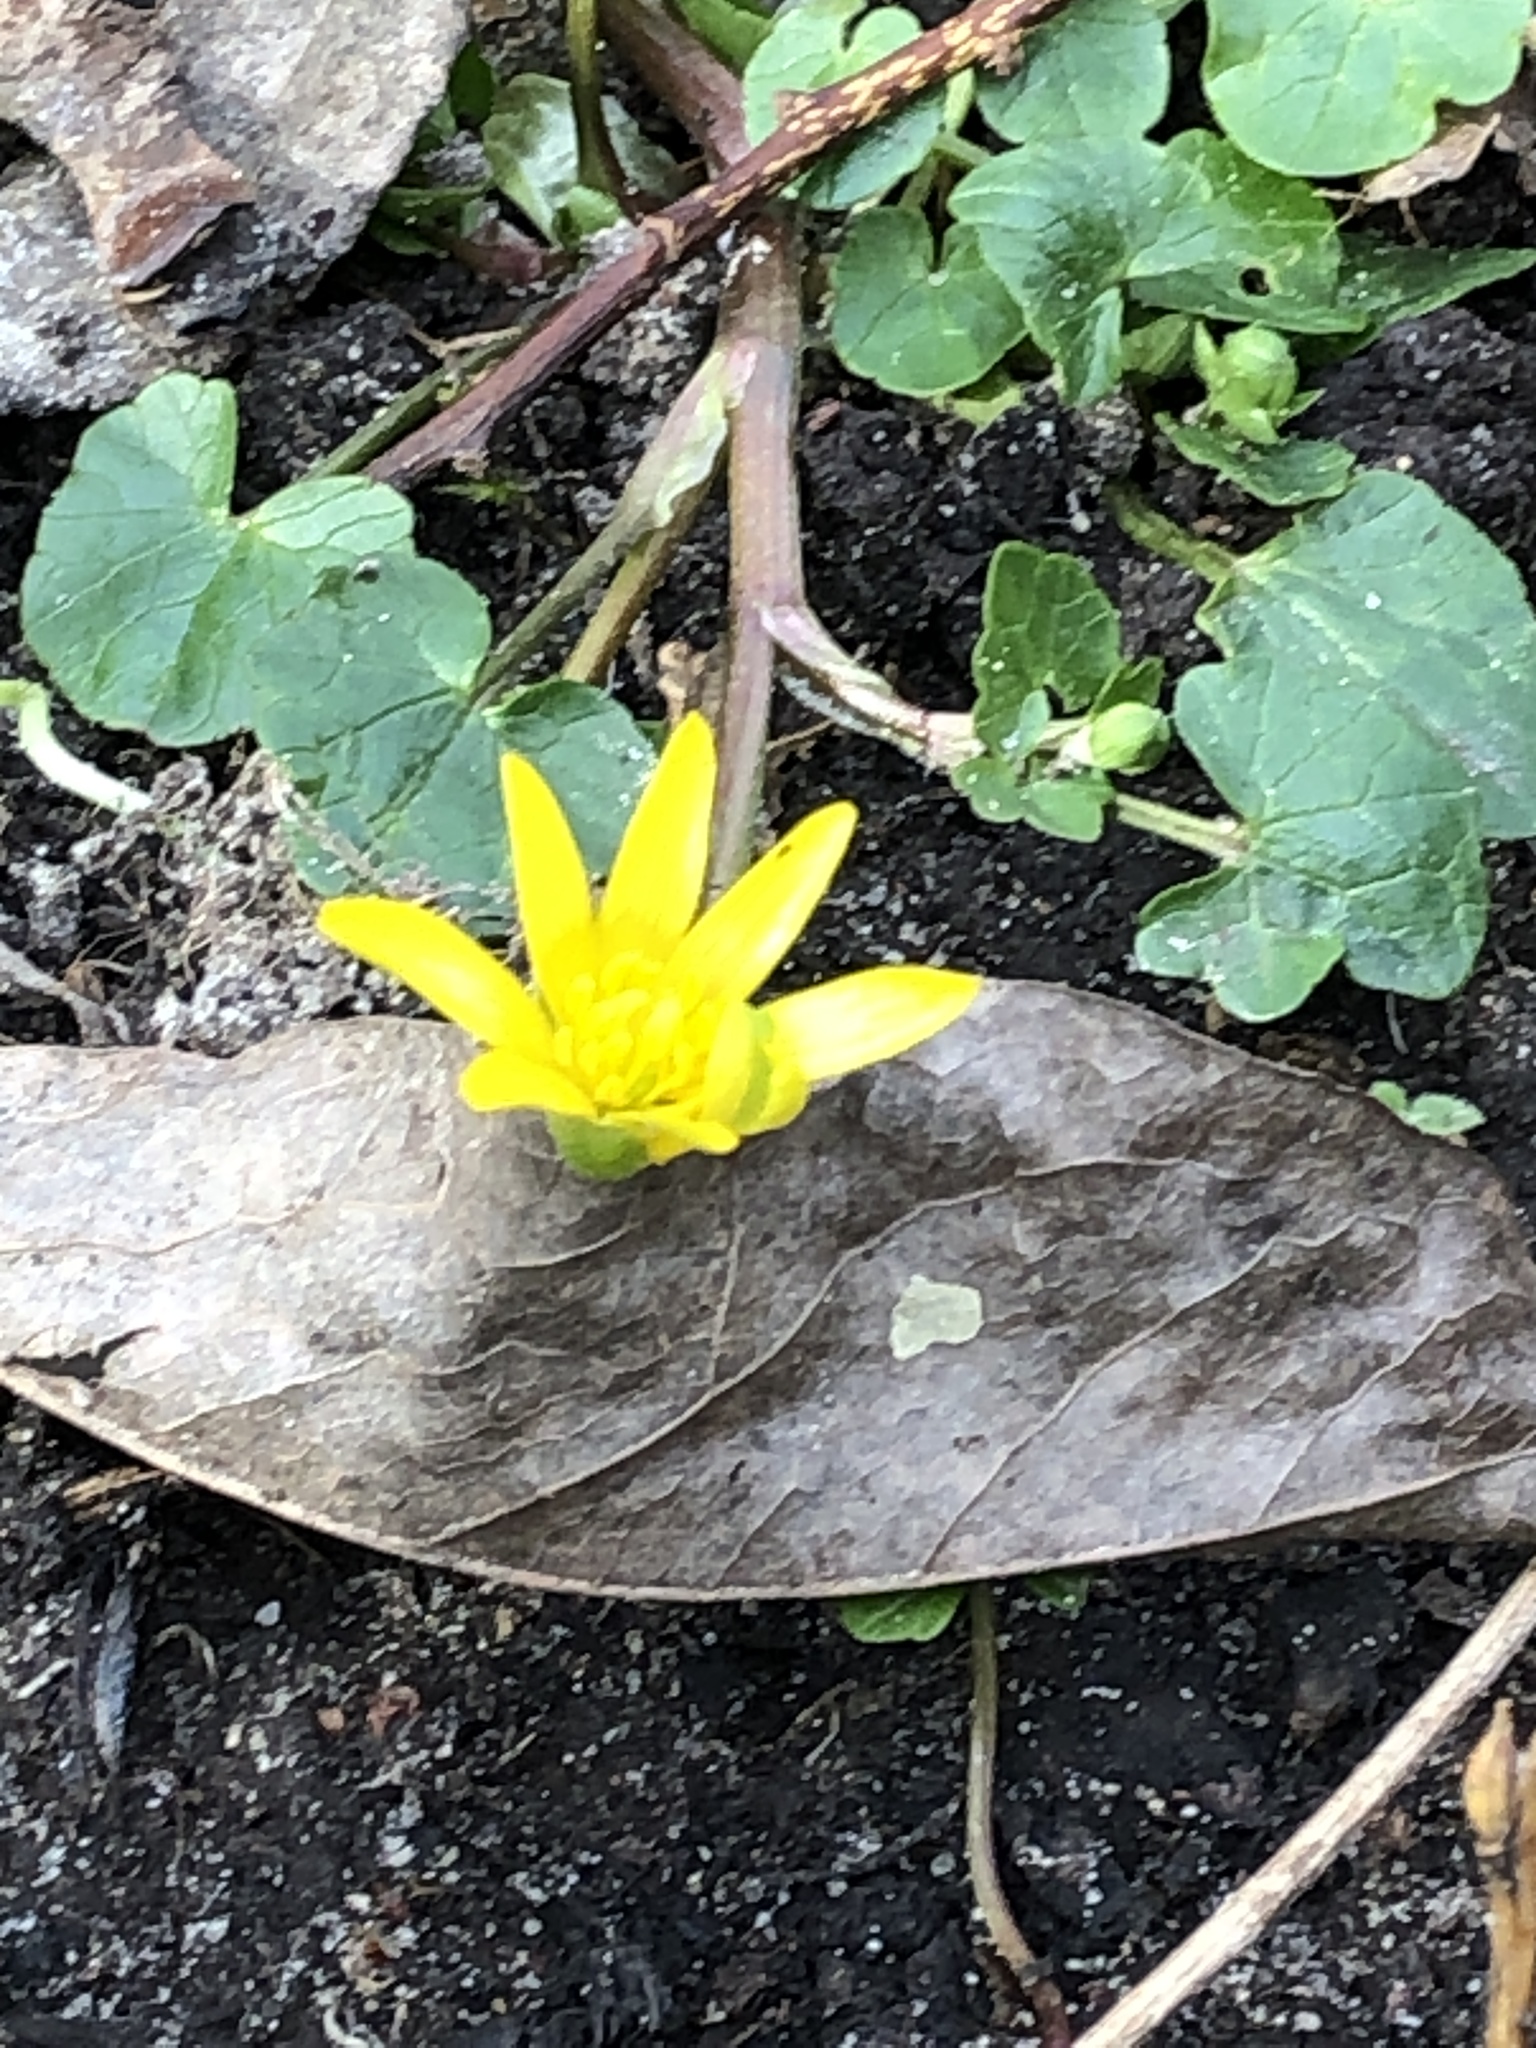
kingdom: Plantae
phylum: Tracheophyta
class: Magnoliopsida
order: Ranunculales
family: Ranunculaceae
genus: Ficaria
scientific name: Ficaria verna
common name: Lesser celandine
